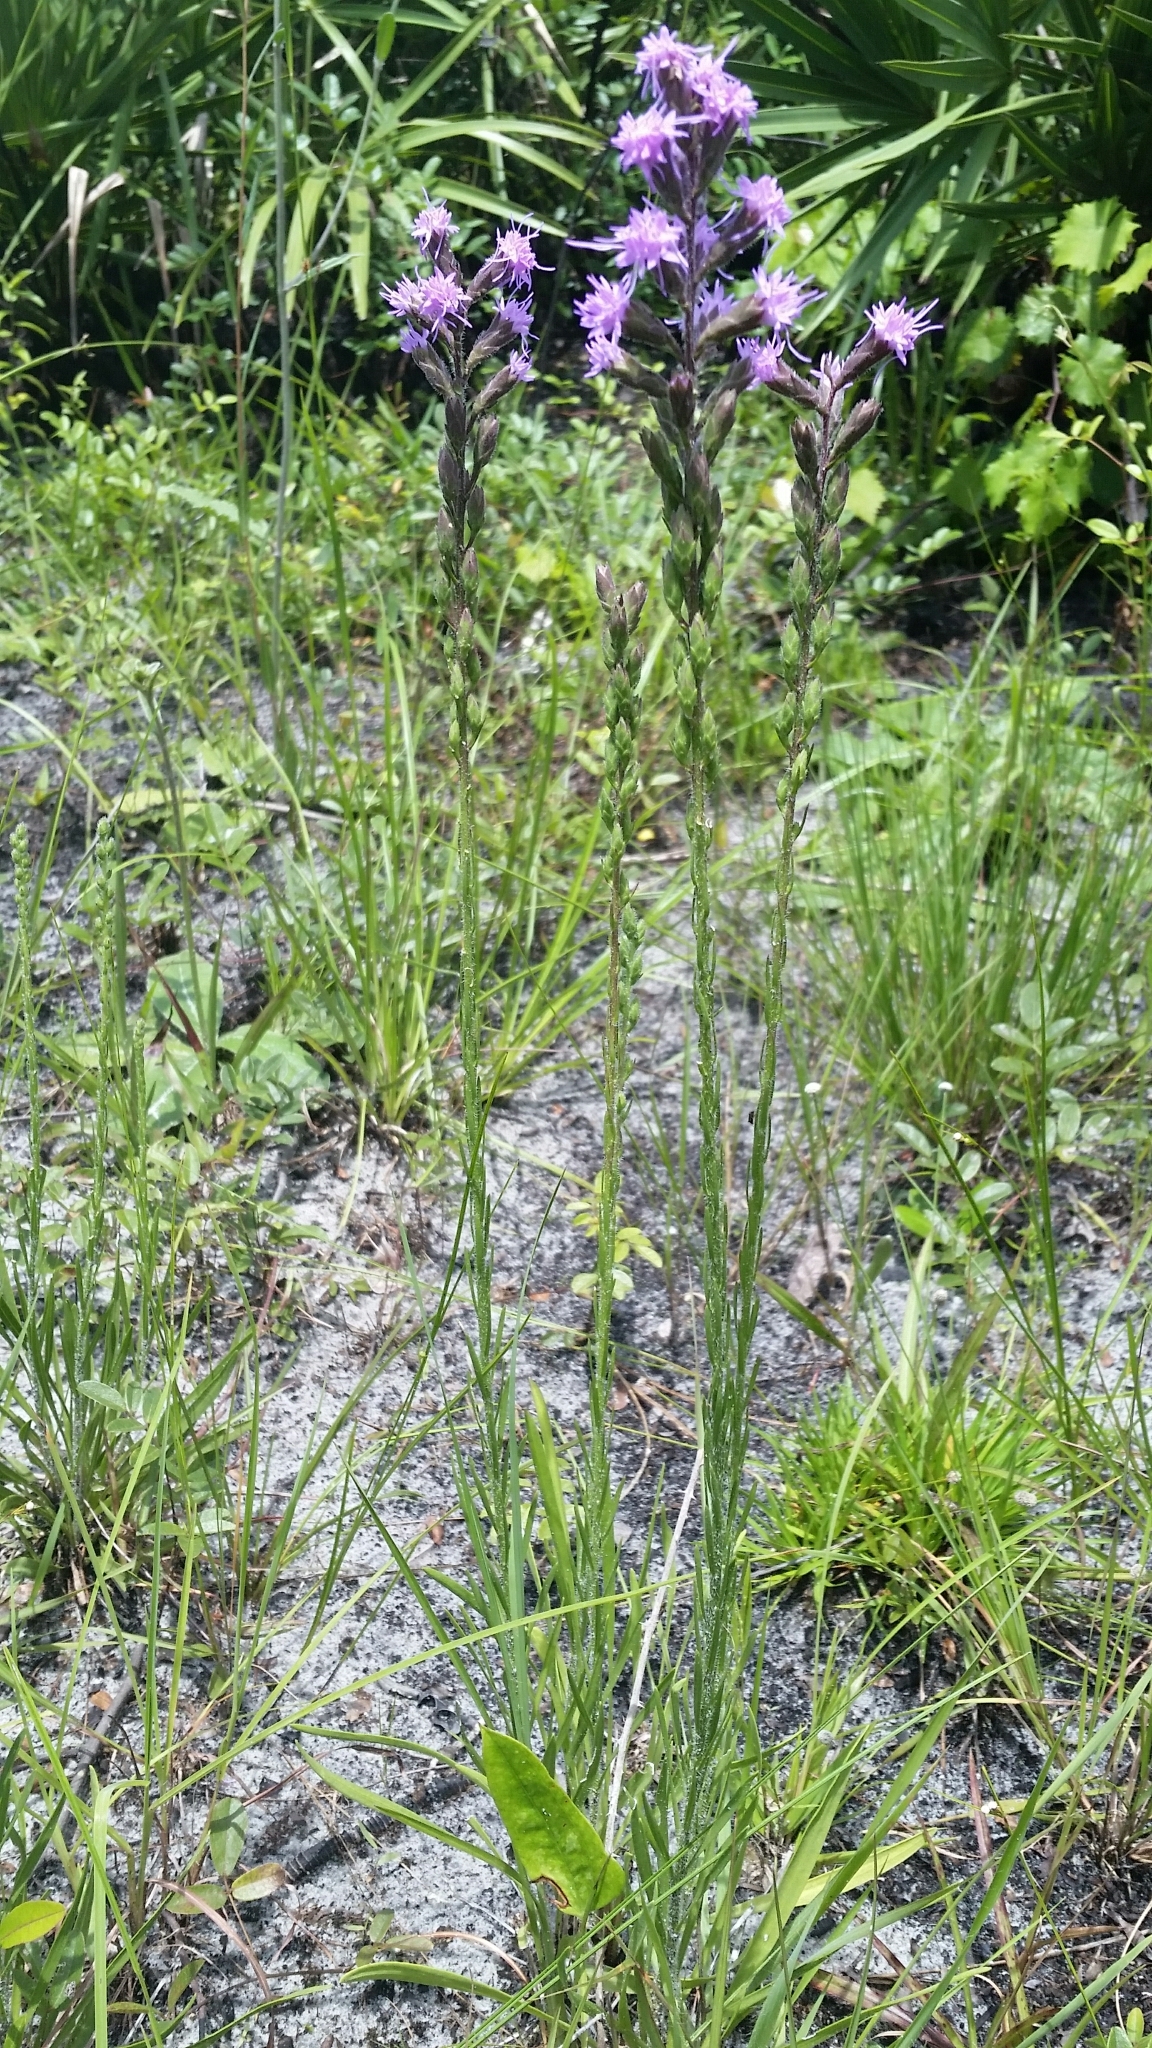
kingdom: Plantae
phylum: Tracheophyta
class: Magnoliopsida
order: Asterales
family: Asteraceae
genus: Liatris
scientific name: Liatris garberi
